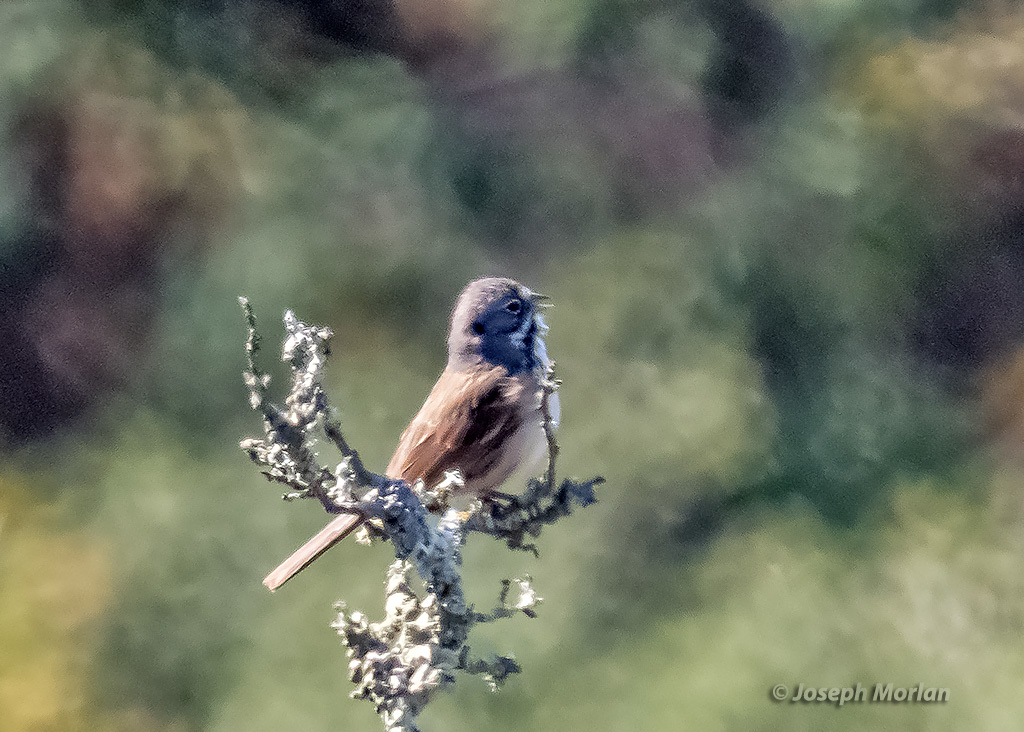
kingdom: Animalia
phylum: Chordata
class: Aves
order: Passeriformes
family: Passerellidae
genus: Artemisiospiza
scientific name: Artemisiospiza belli
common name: Bell's sparrow
